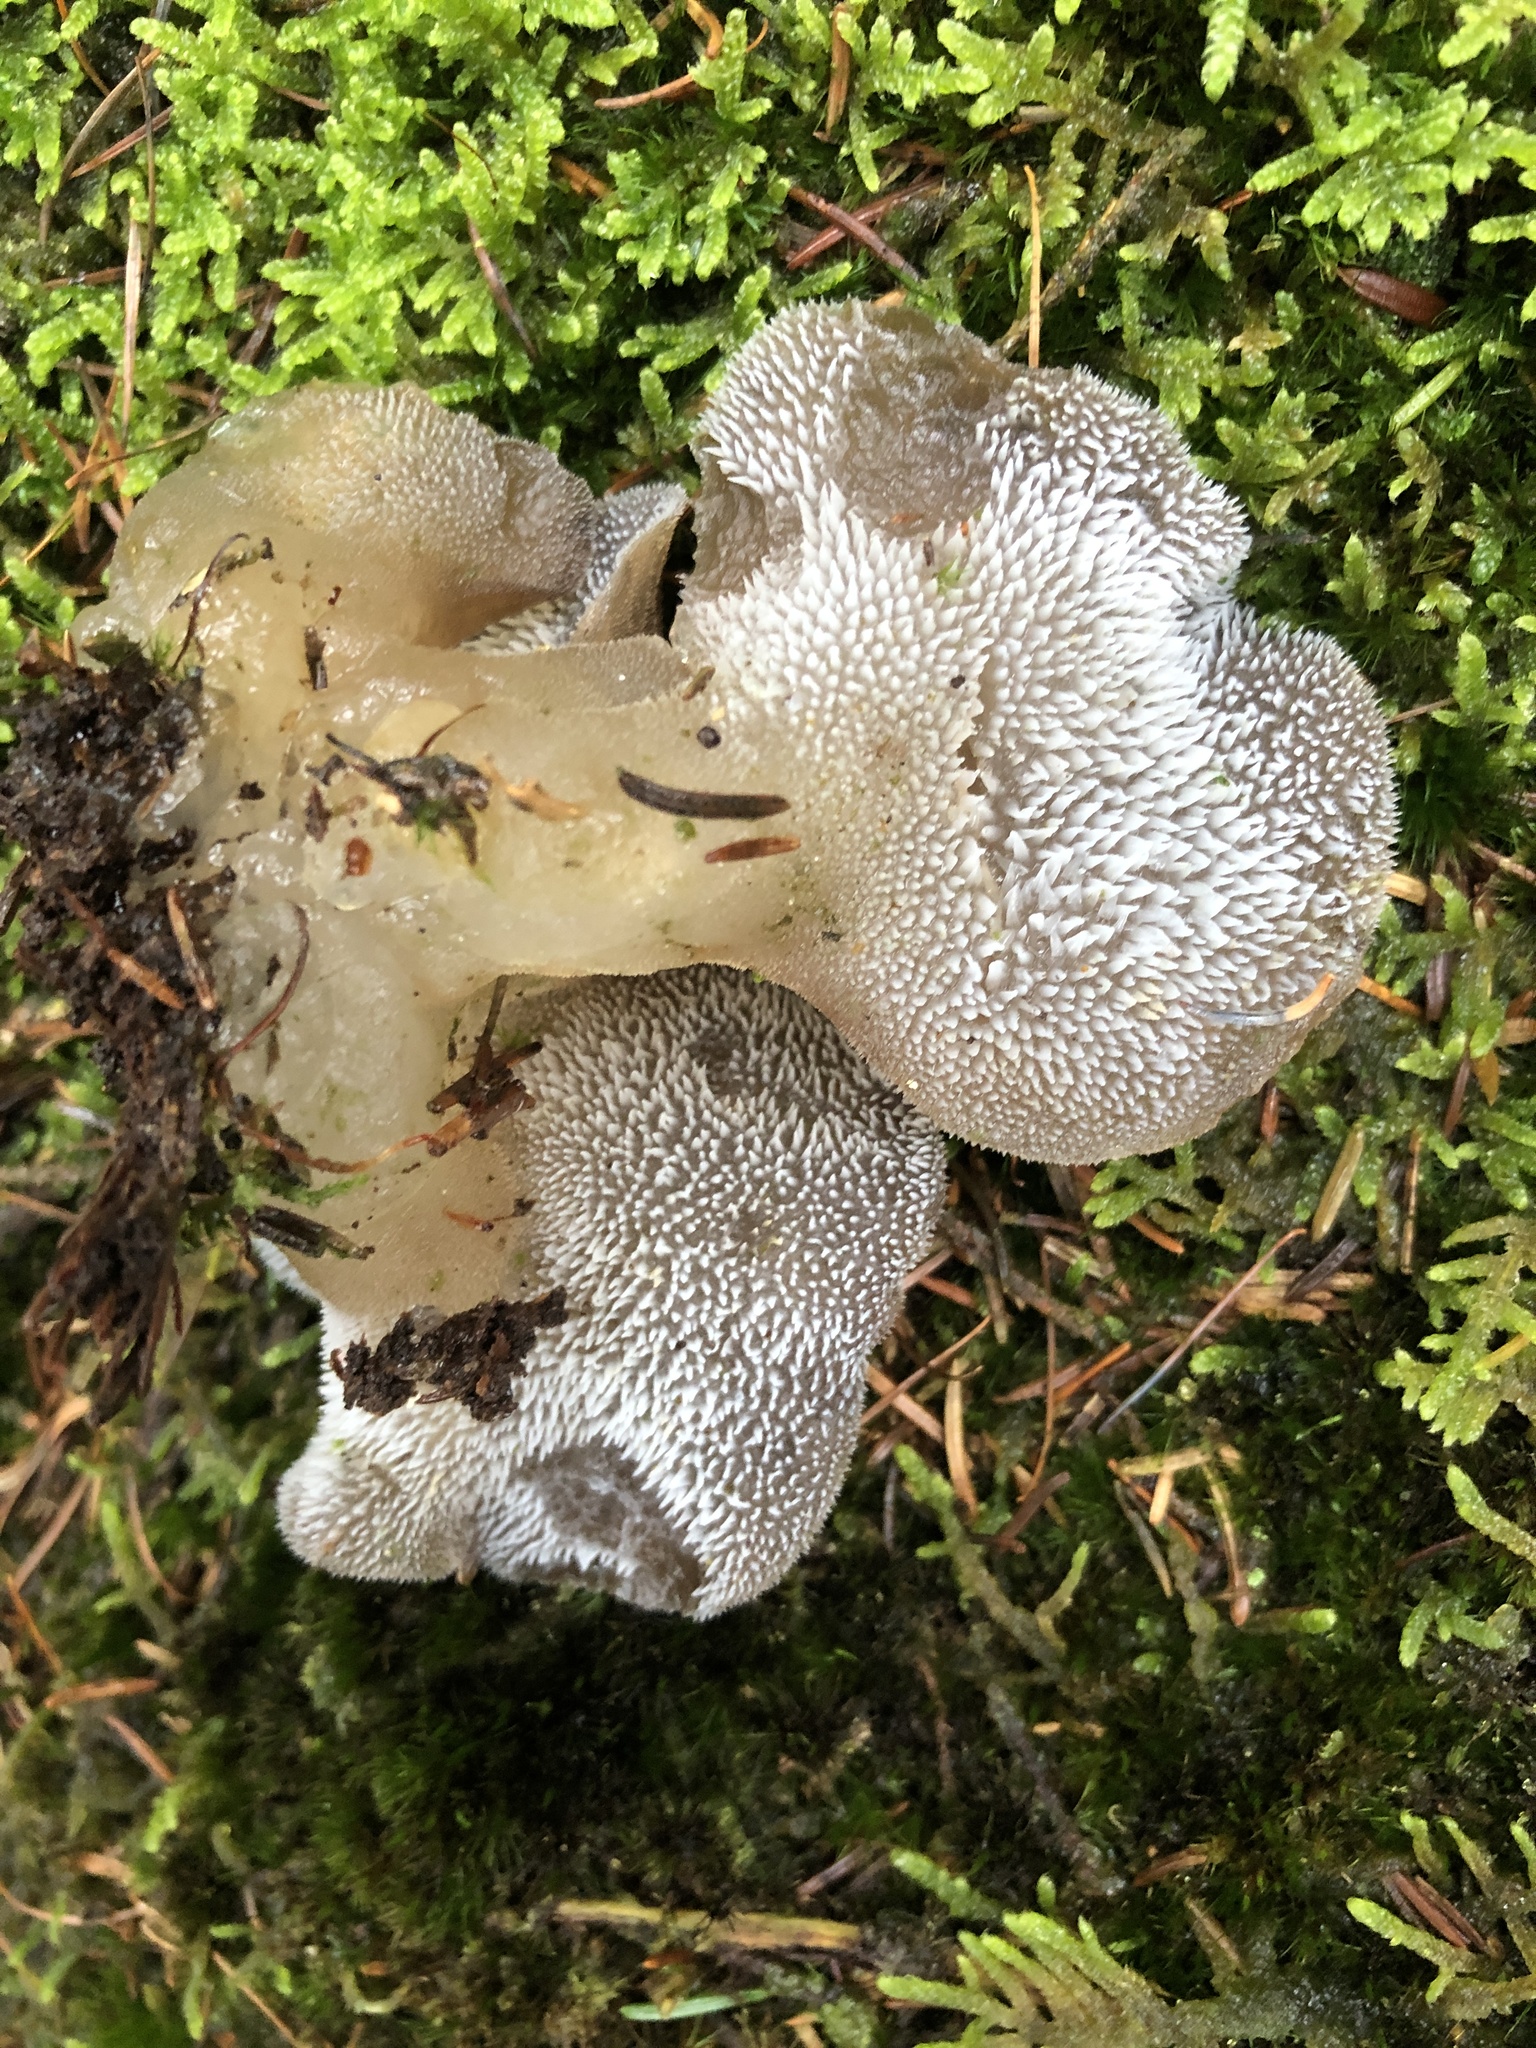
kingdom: Fungi
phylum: Basidiomycota
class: Agaricomycetes
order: Auriculariales
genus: Pseudohydnum
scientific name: Pseudohydnum gelatinosum
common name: Jelly tongue
